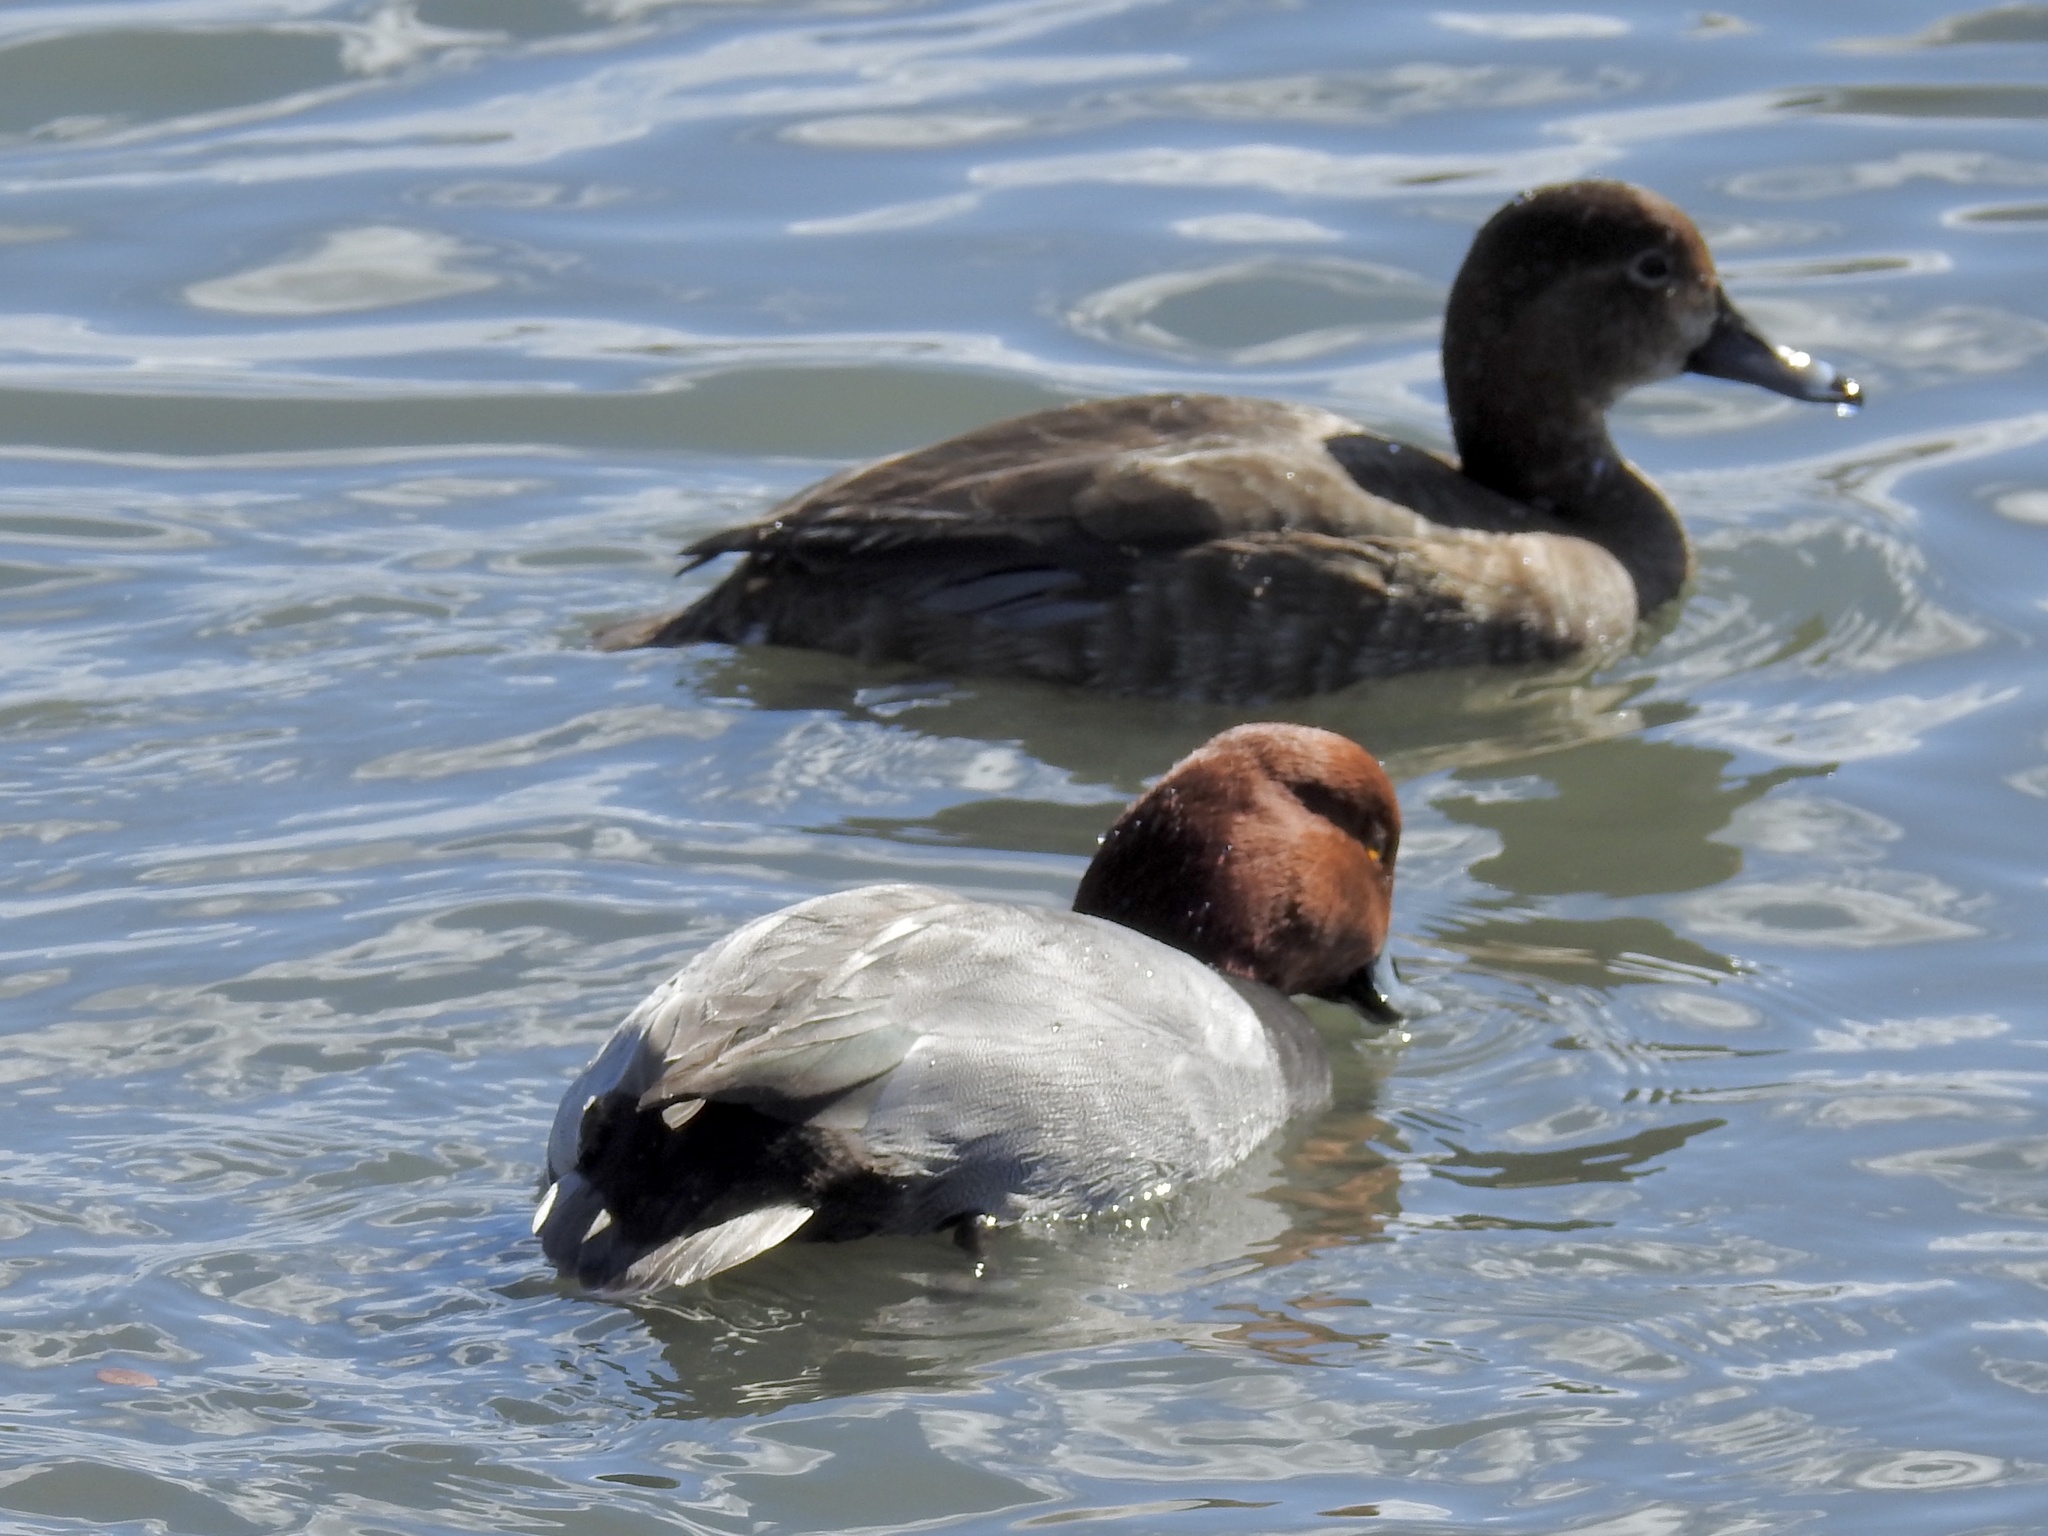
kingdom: Animalia
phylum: Chordata
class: Aves
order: Anseriformes
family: Anatidae
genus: Aythya
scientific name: Aythya americana
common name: Redhead
